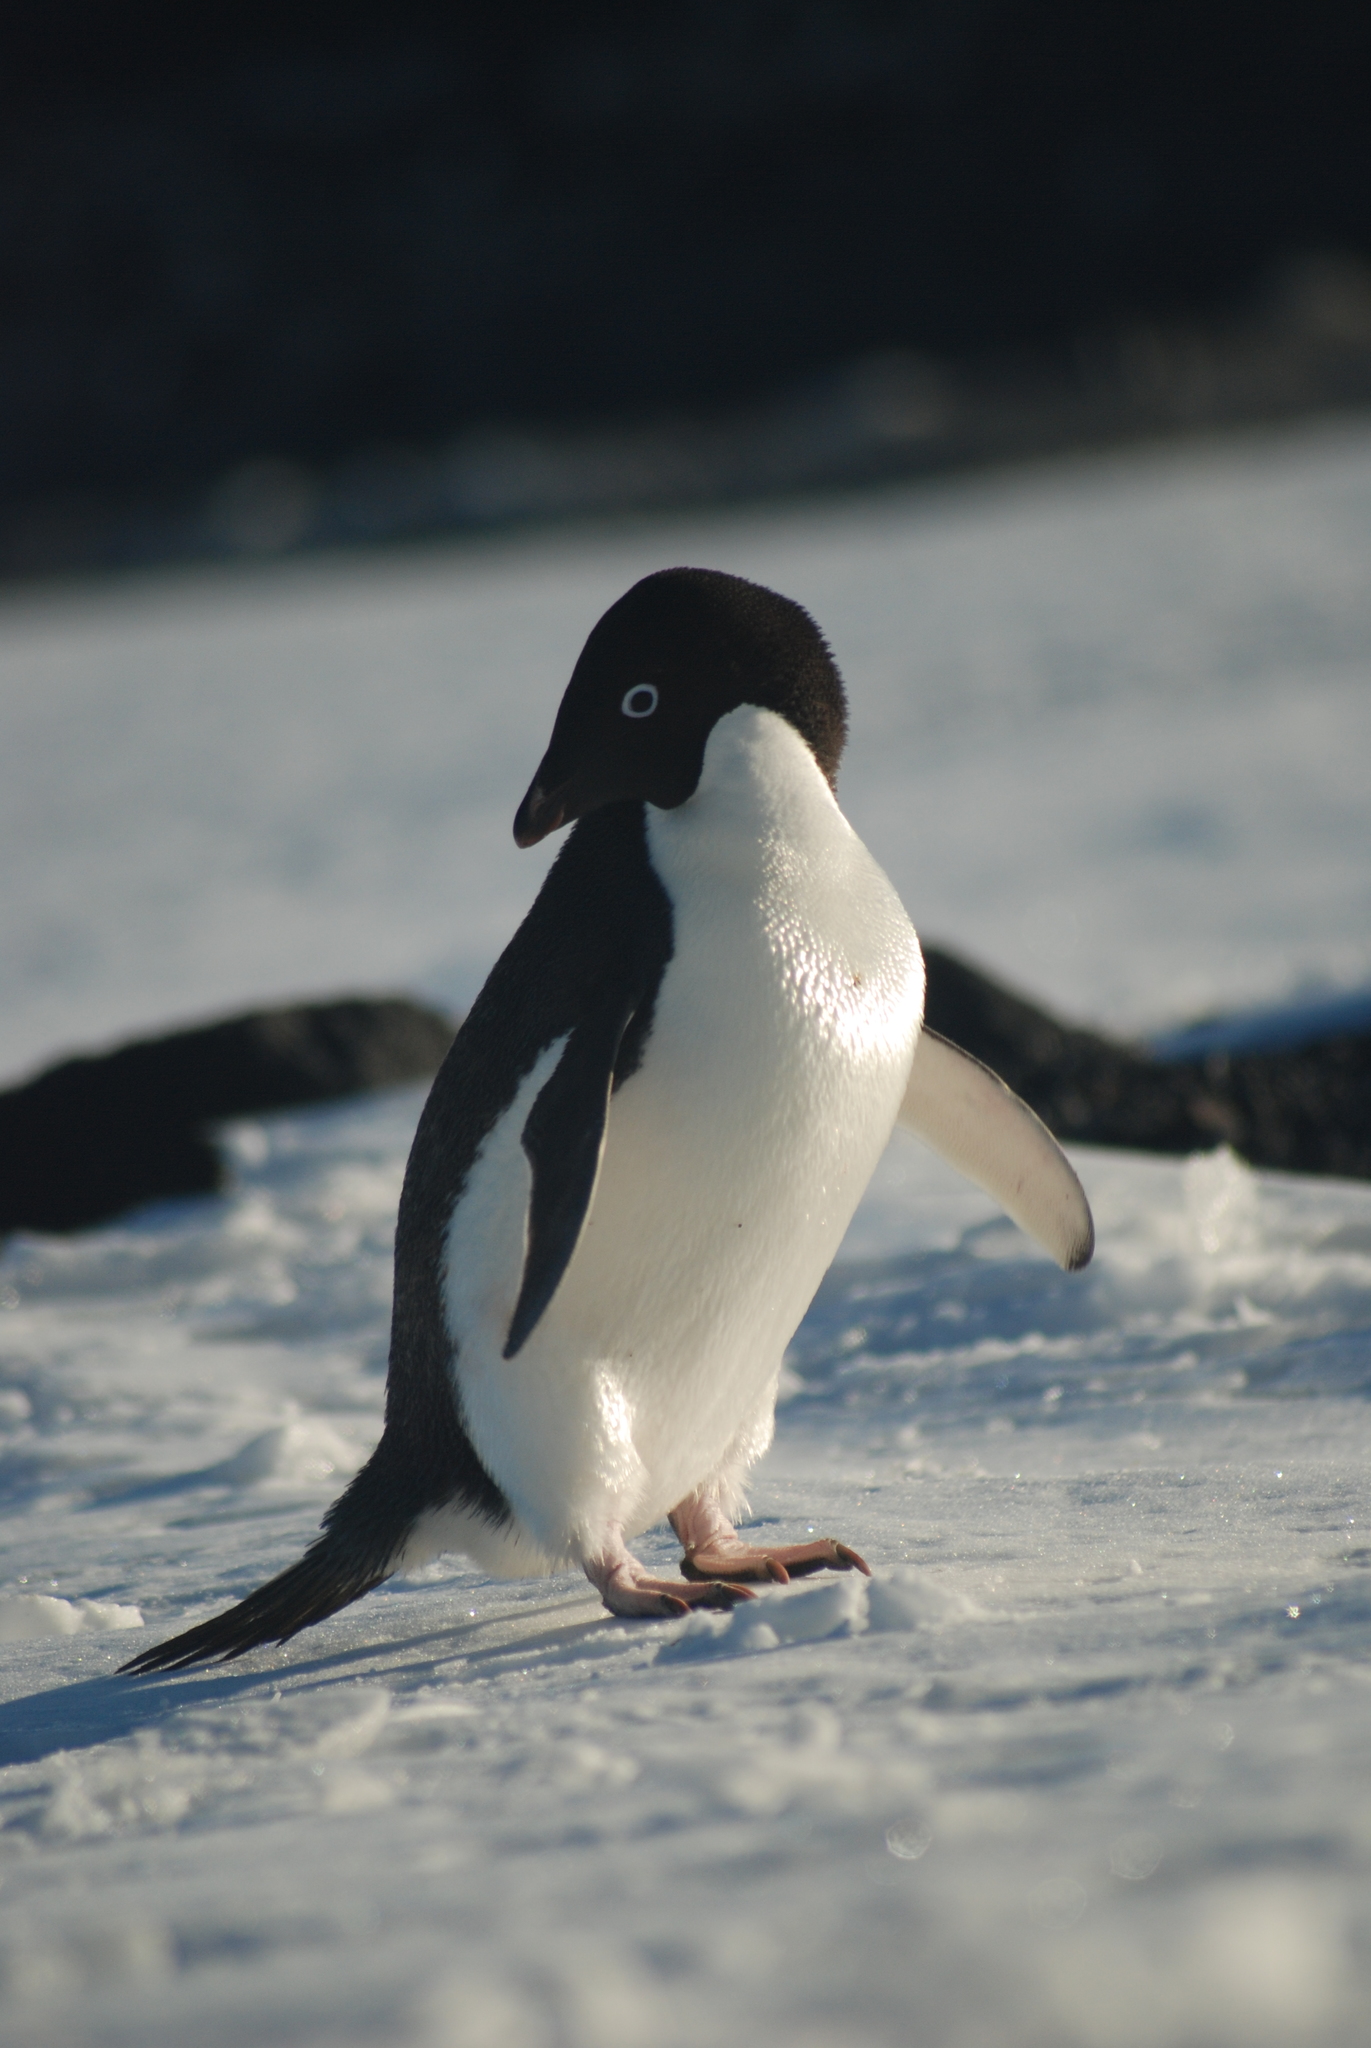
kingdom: Animalia
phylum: Chordata
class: Aves
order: Sphenisciformes
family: Spheniscidae
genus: Pygoscelis
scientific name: Pygoscelis adeliae
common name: Adelie penguin
